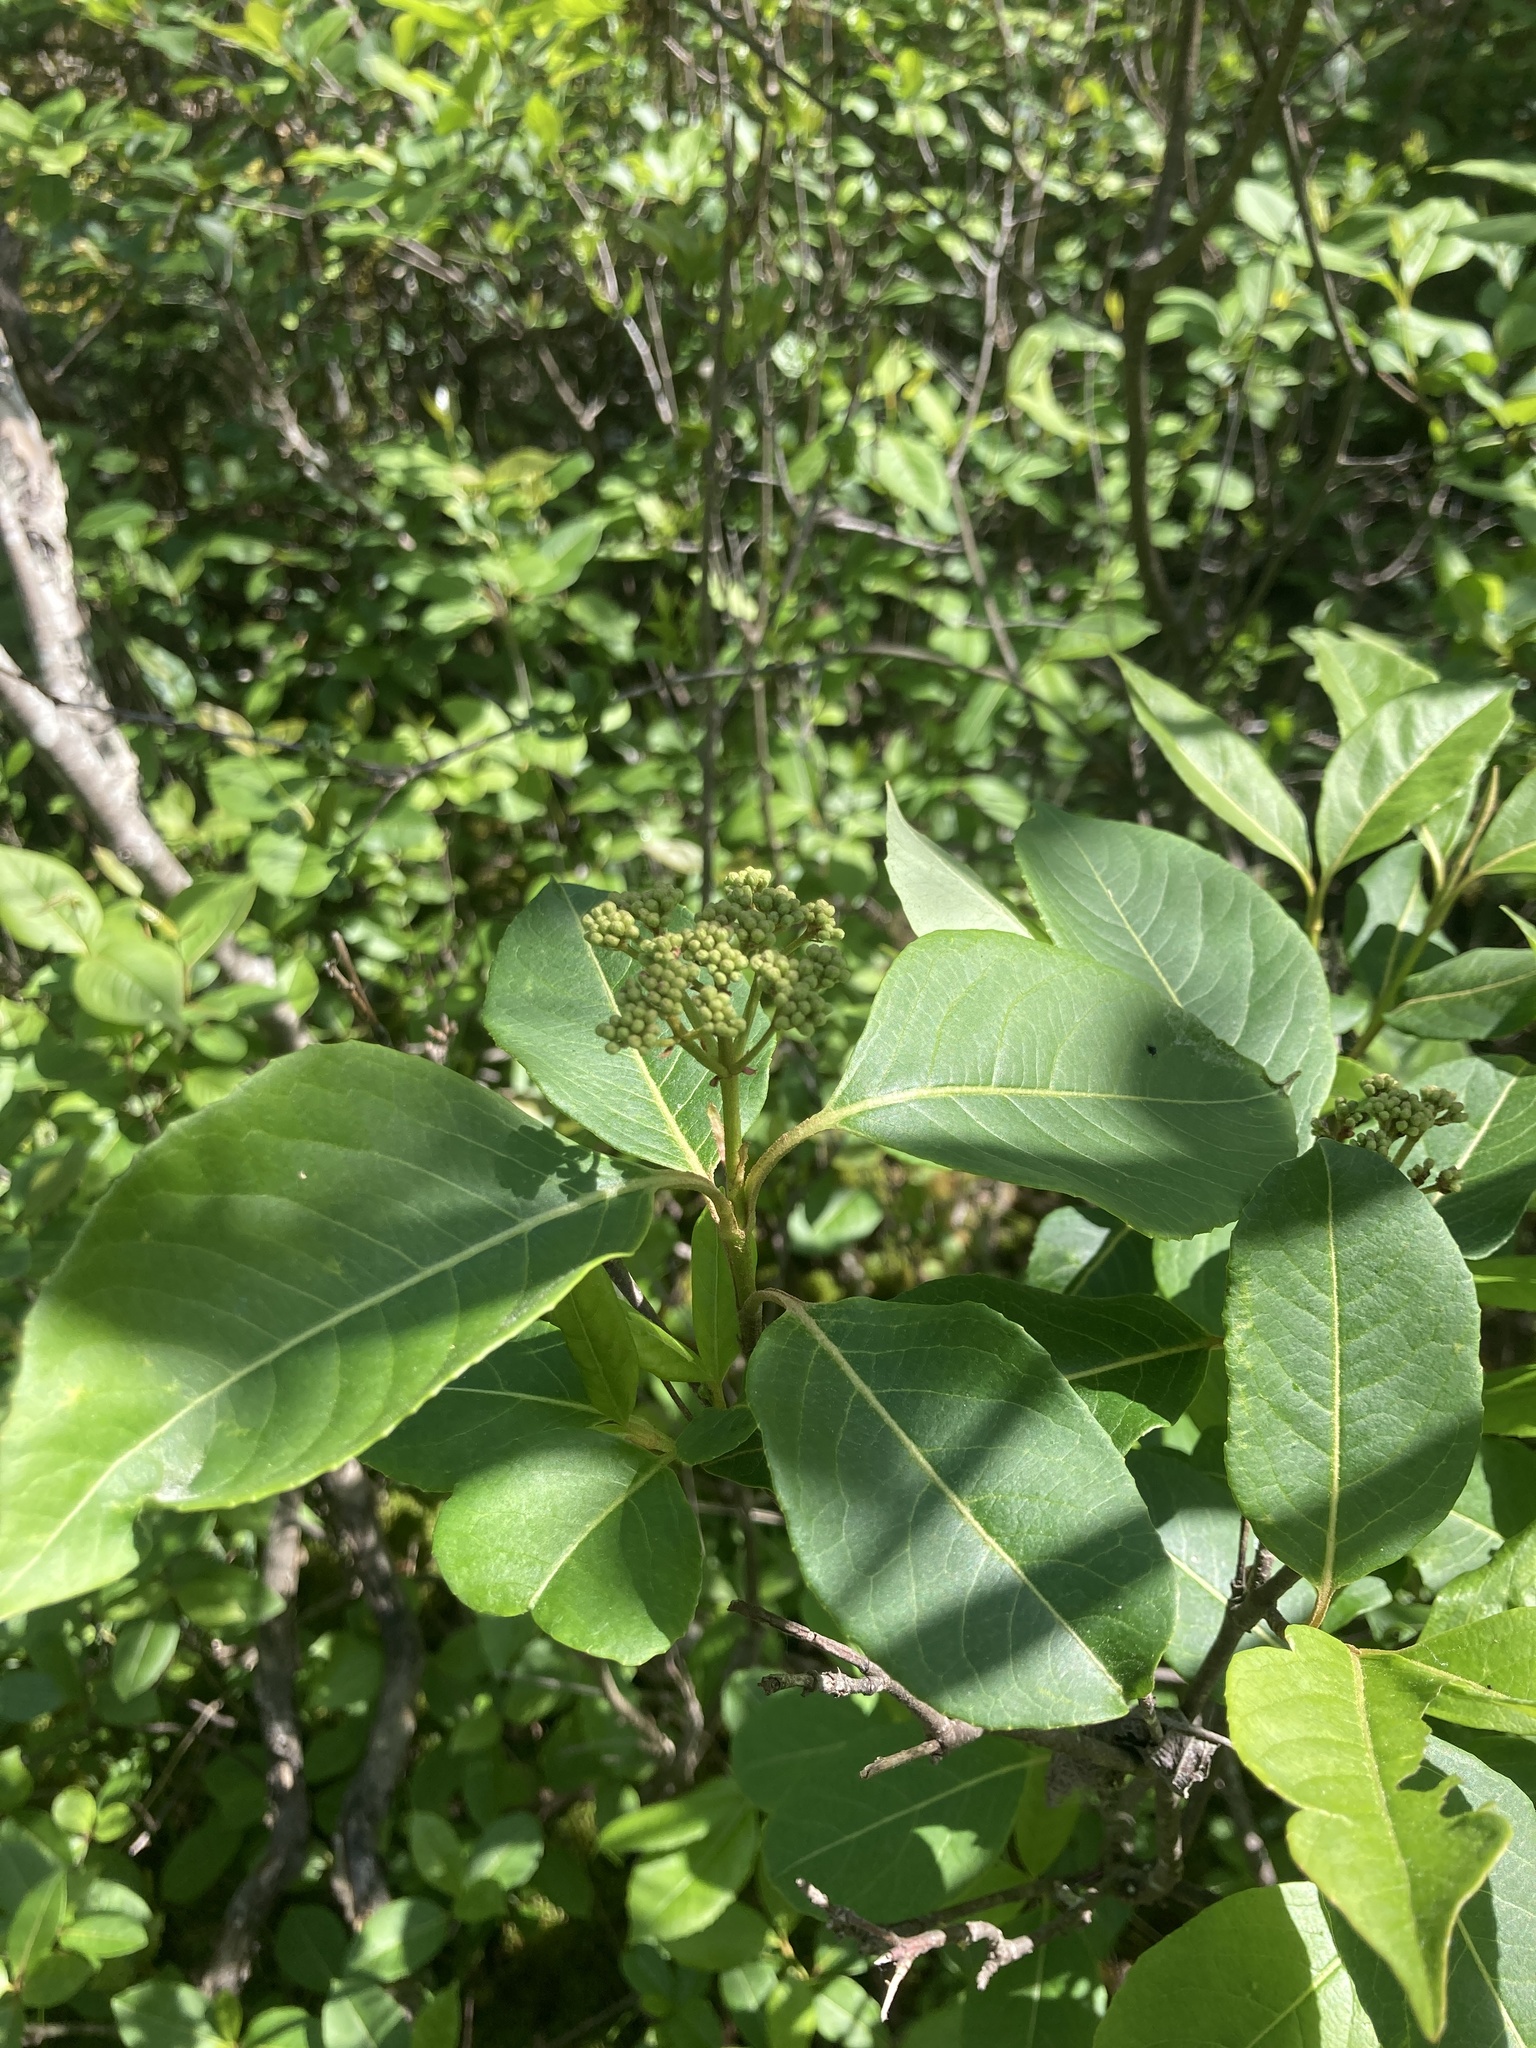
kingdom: Plantae
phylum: Tracheophyta
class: Magnoliopsida
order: Dipsacales
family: Viburnaceae
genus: Viburnum
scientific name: Viburnum cassinoides
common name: Swamp haw
